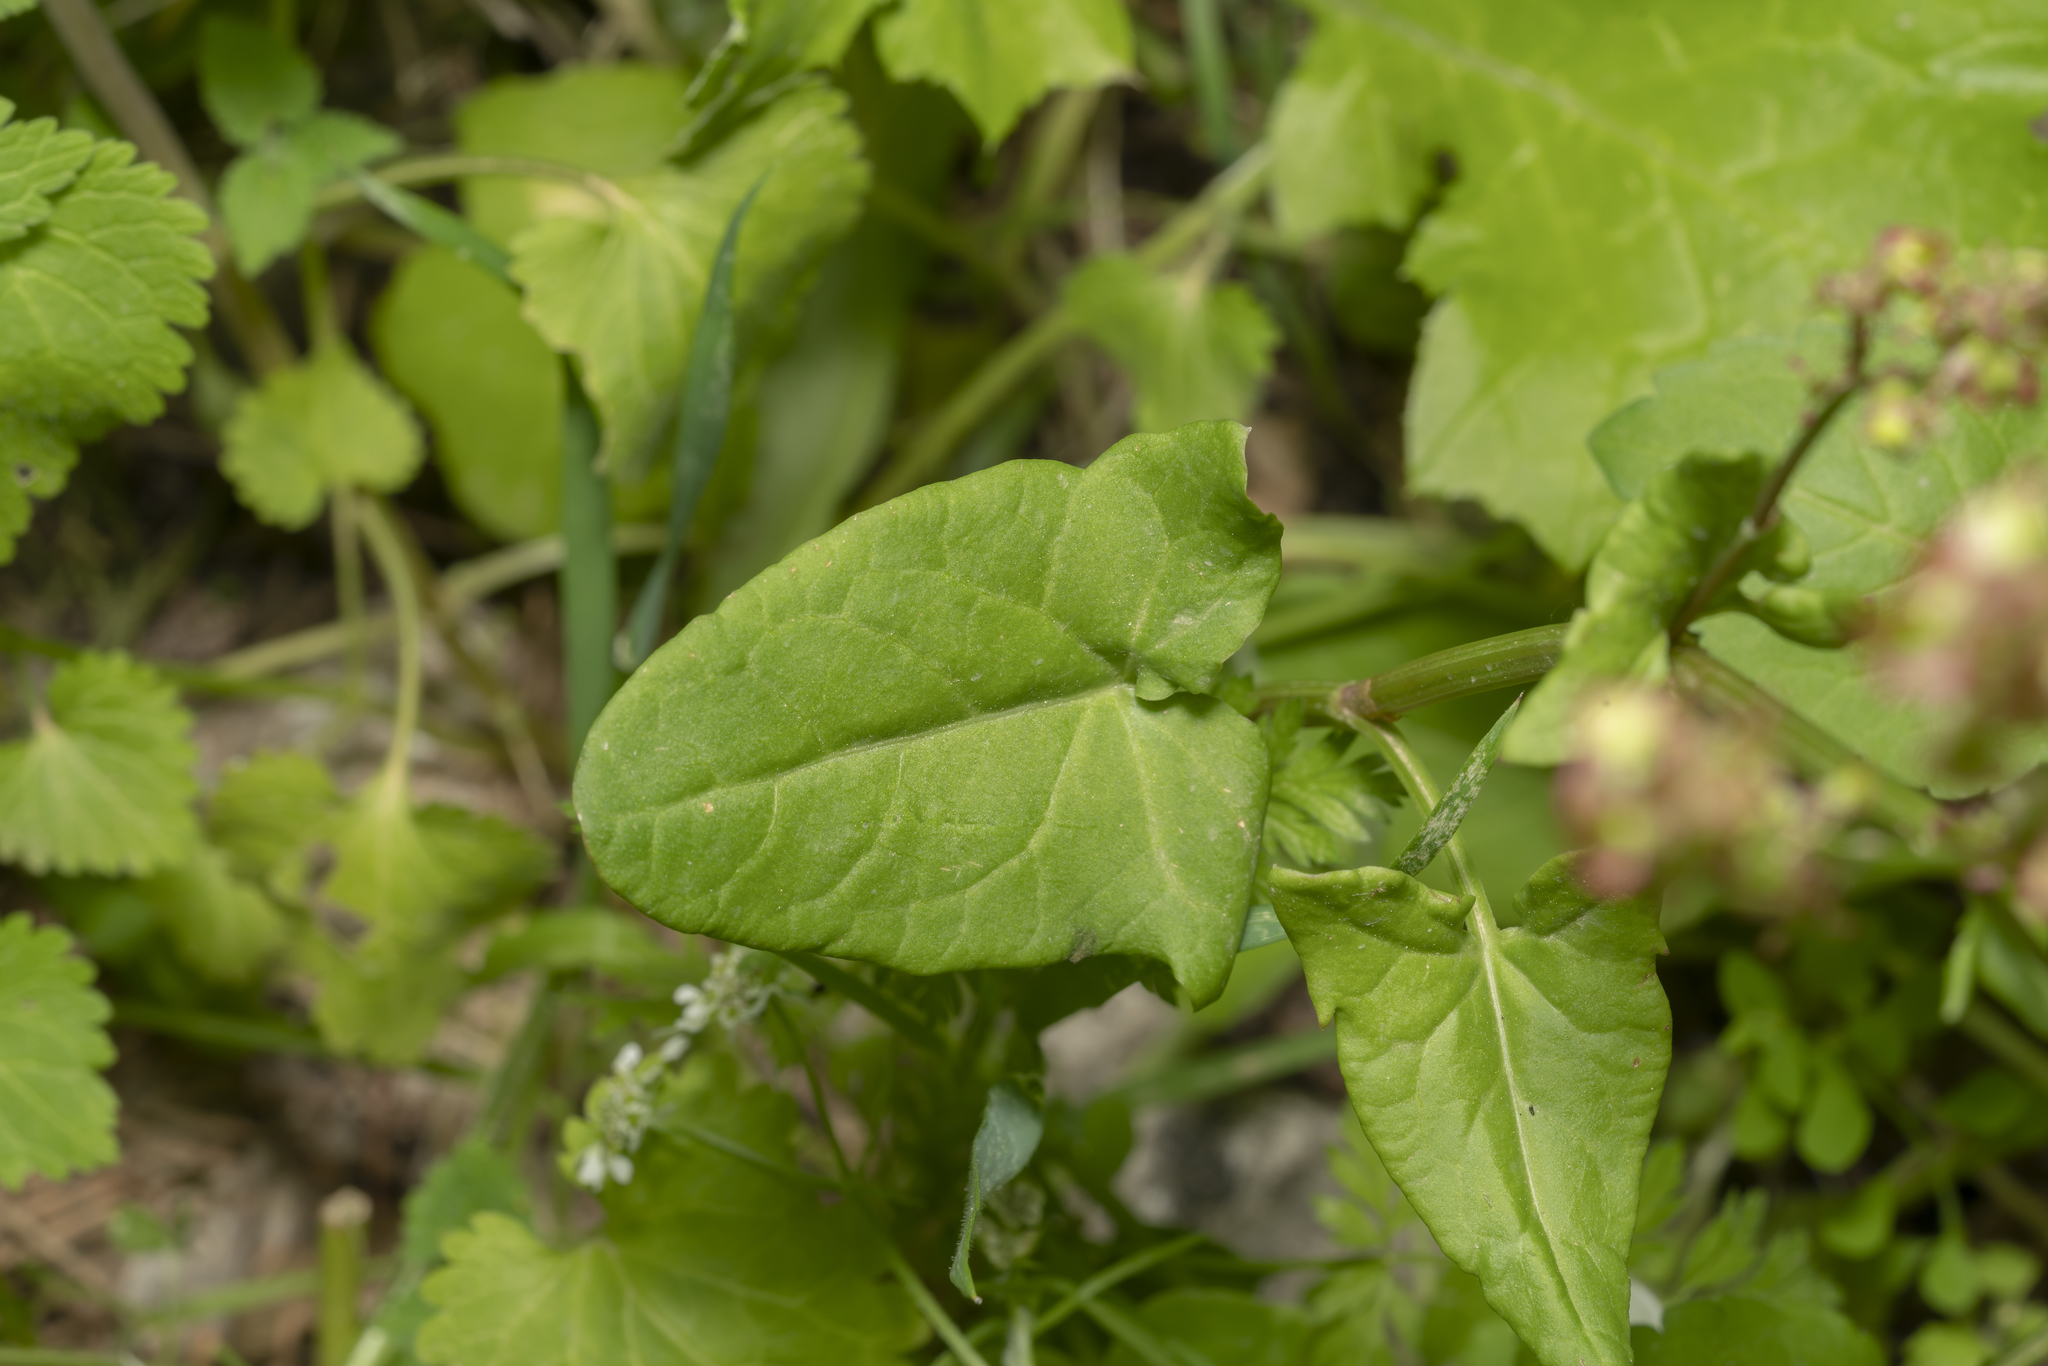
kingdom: Plantae
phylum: Tracheophyta
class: Magnoliopsida
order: Caryophyllales
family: Polygonaceae
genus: Rumex
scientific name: Rumex tuberosus
